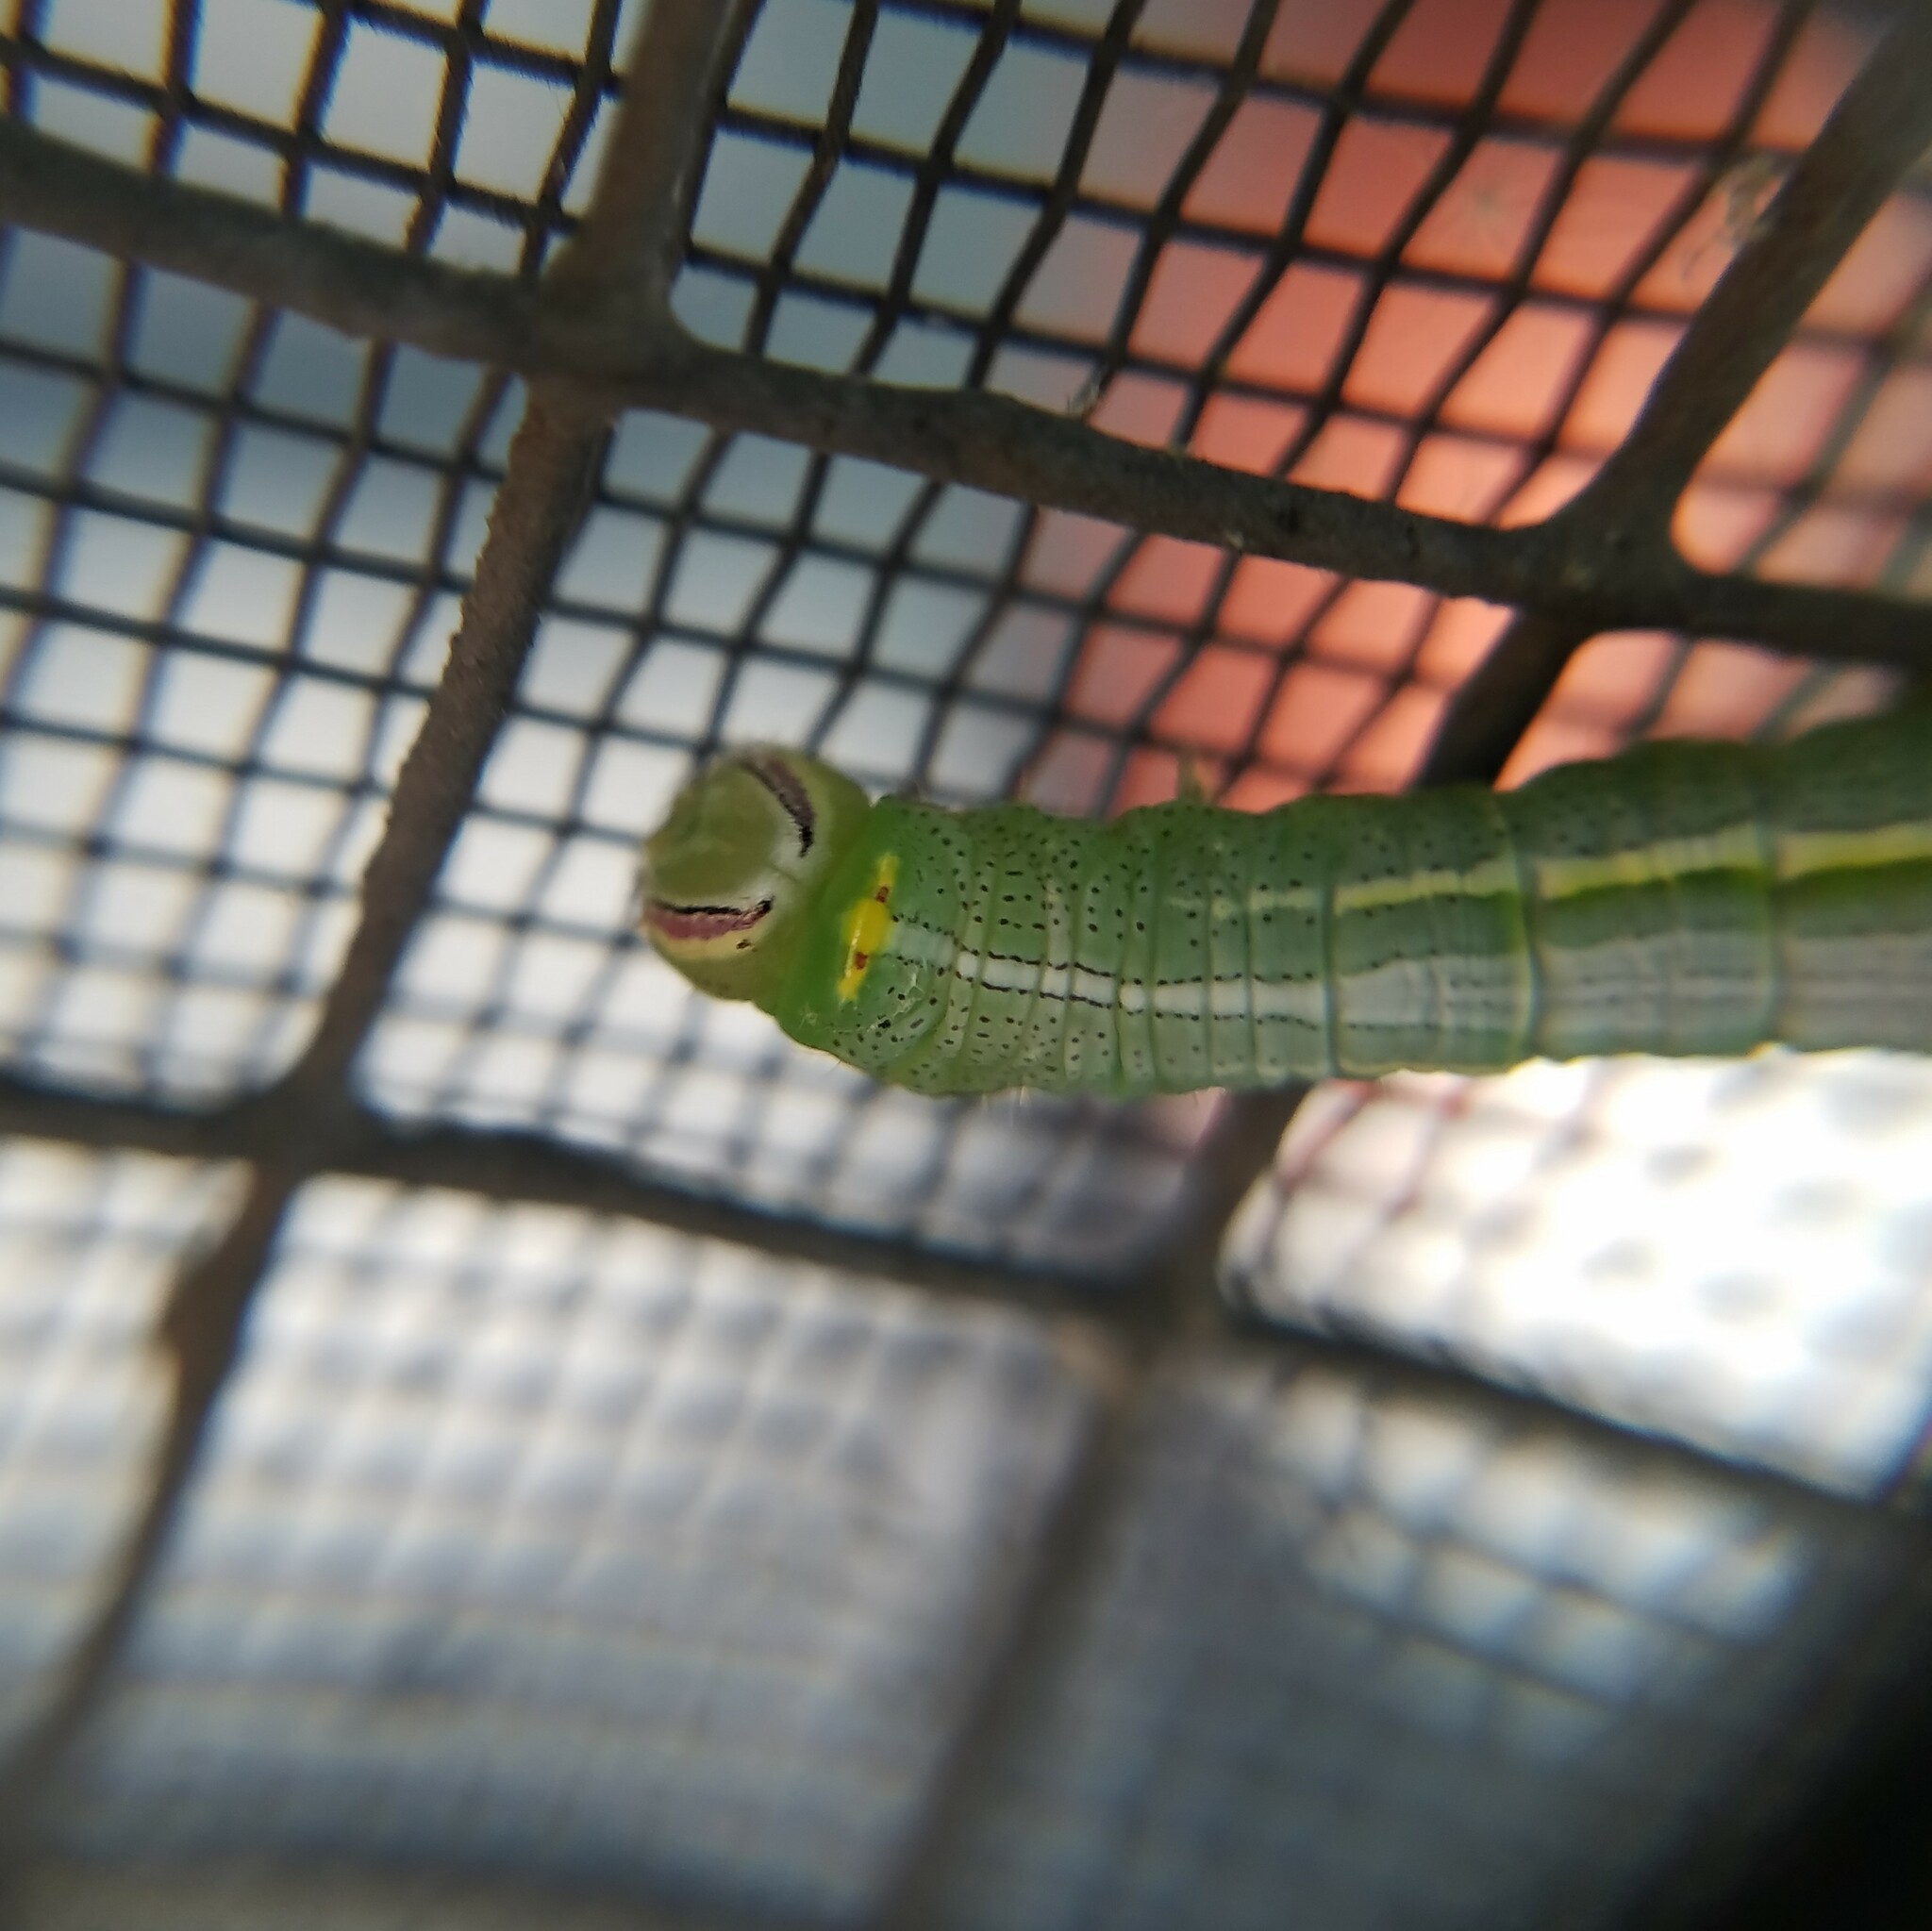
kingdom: Animalia
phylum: Arthropoda
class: Insecta
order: Lepidoptera
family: Notodontidae
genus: Disphragis
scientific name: Disphragis Cecrita guttivitta
